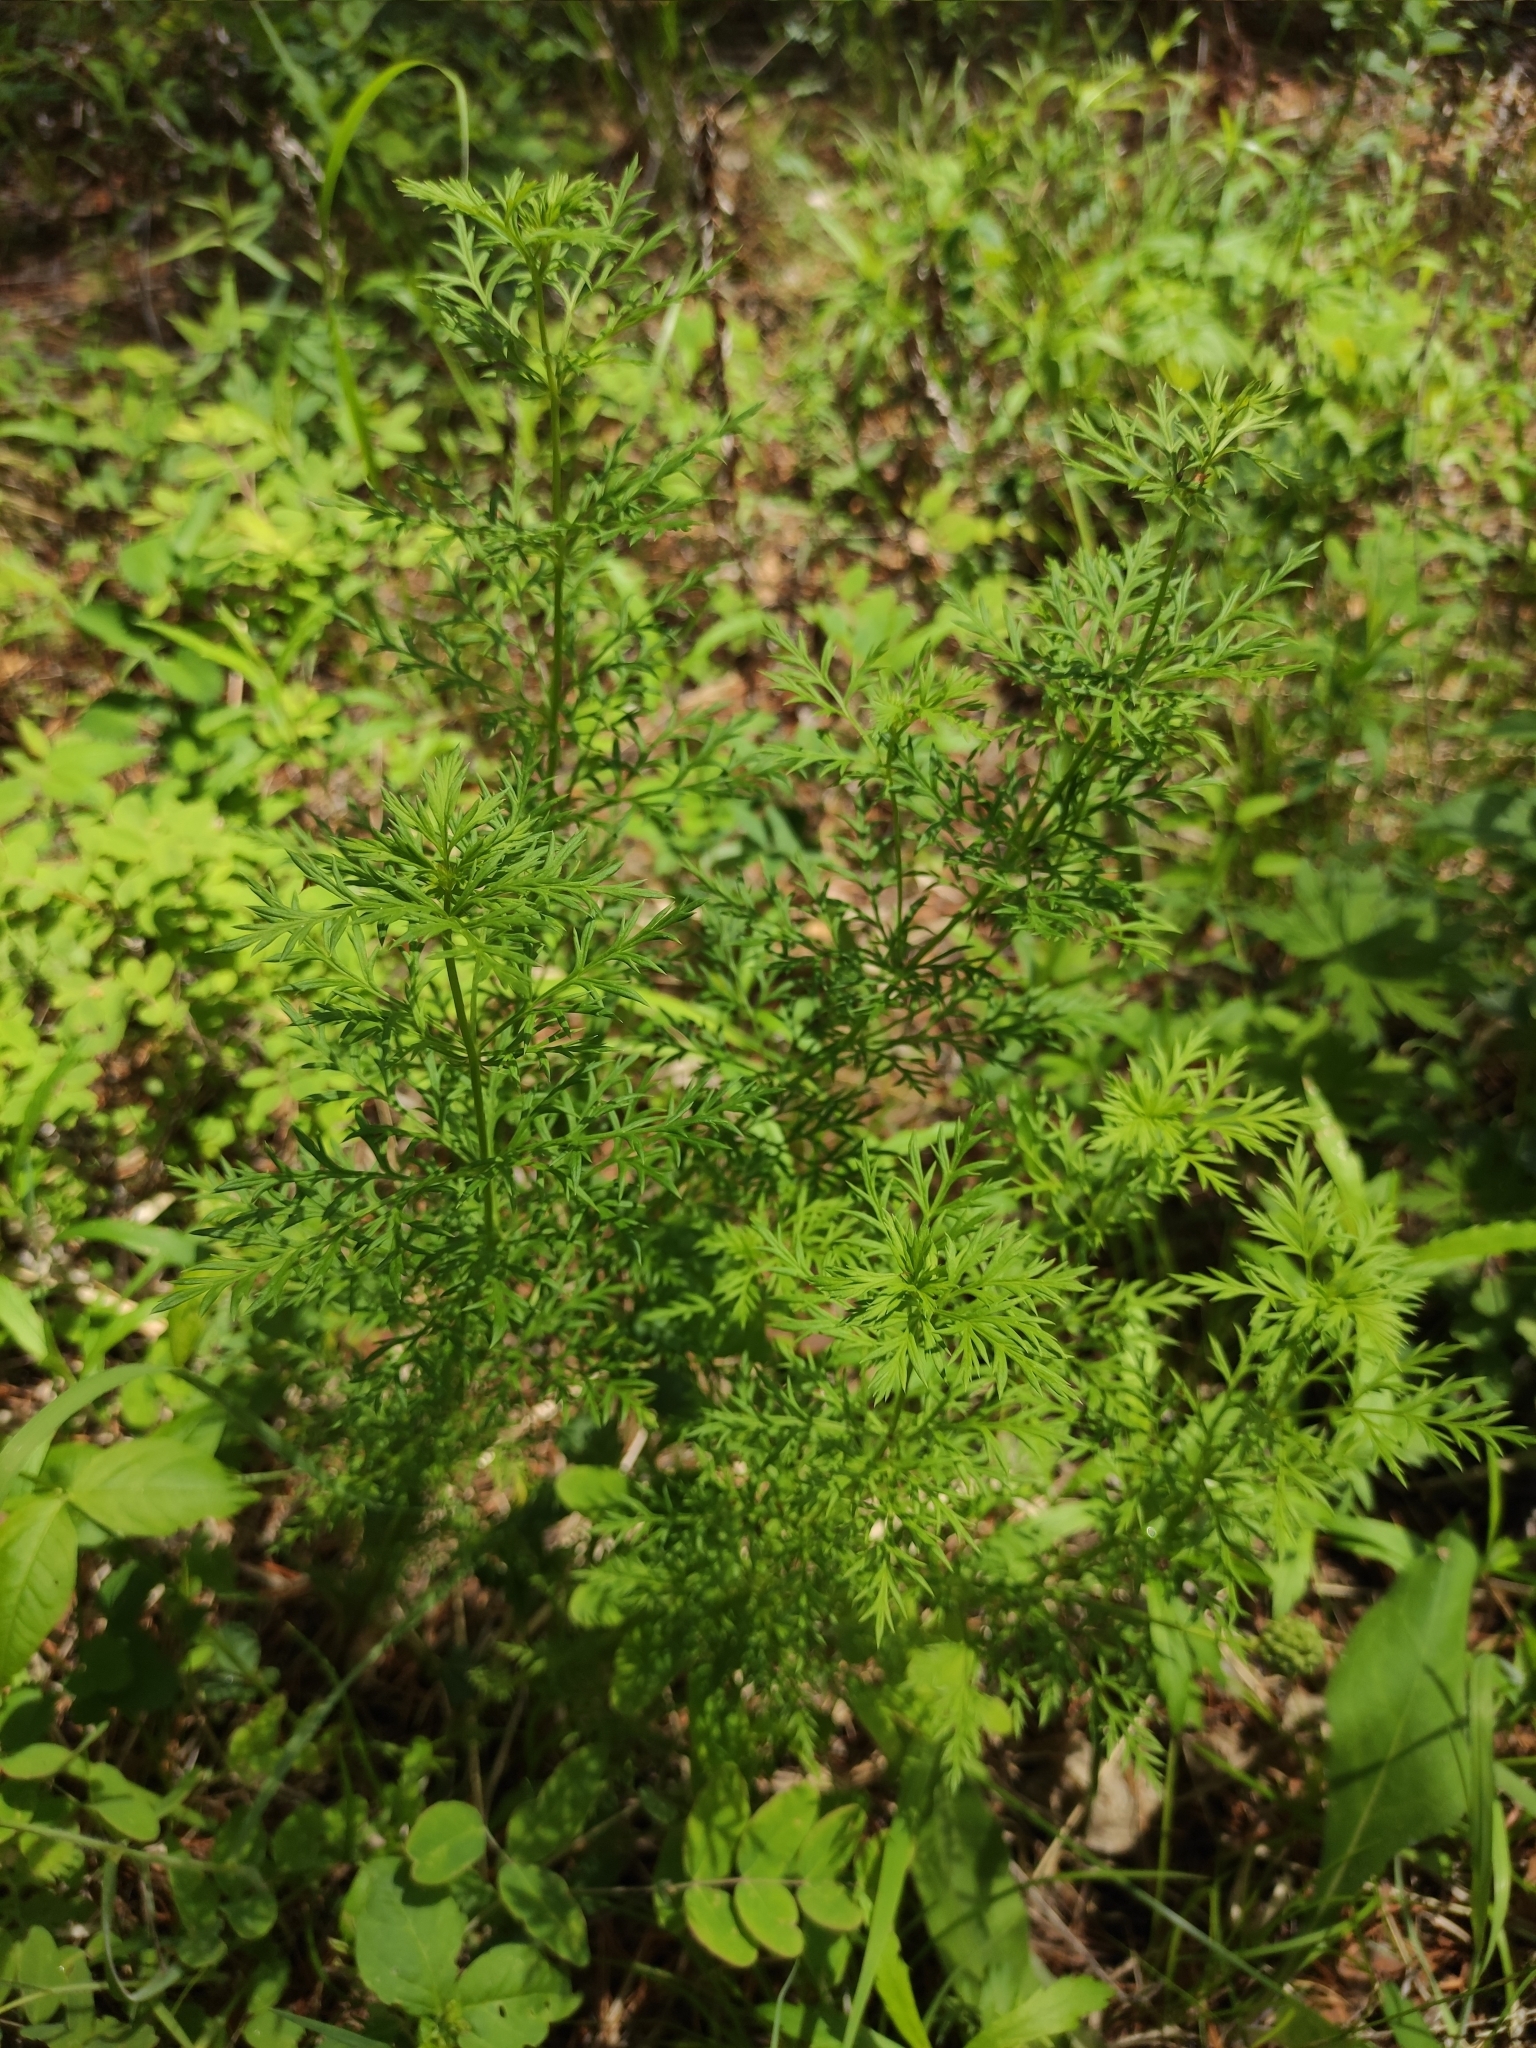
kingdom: Plantae
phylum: Tracheophyta
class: Magnoliopsida
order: Ranunculales
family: Ranunculaceae
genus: Adonis
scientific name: Adonis
